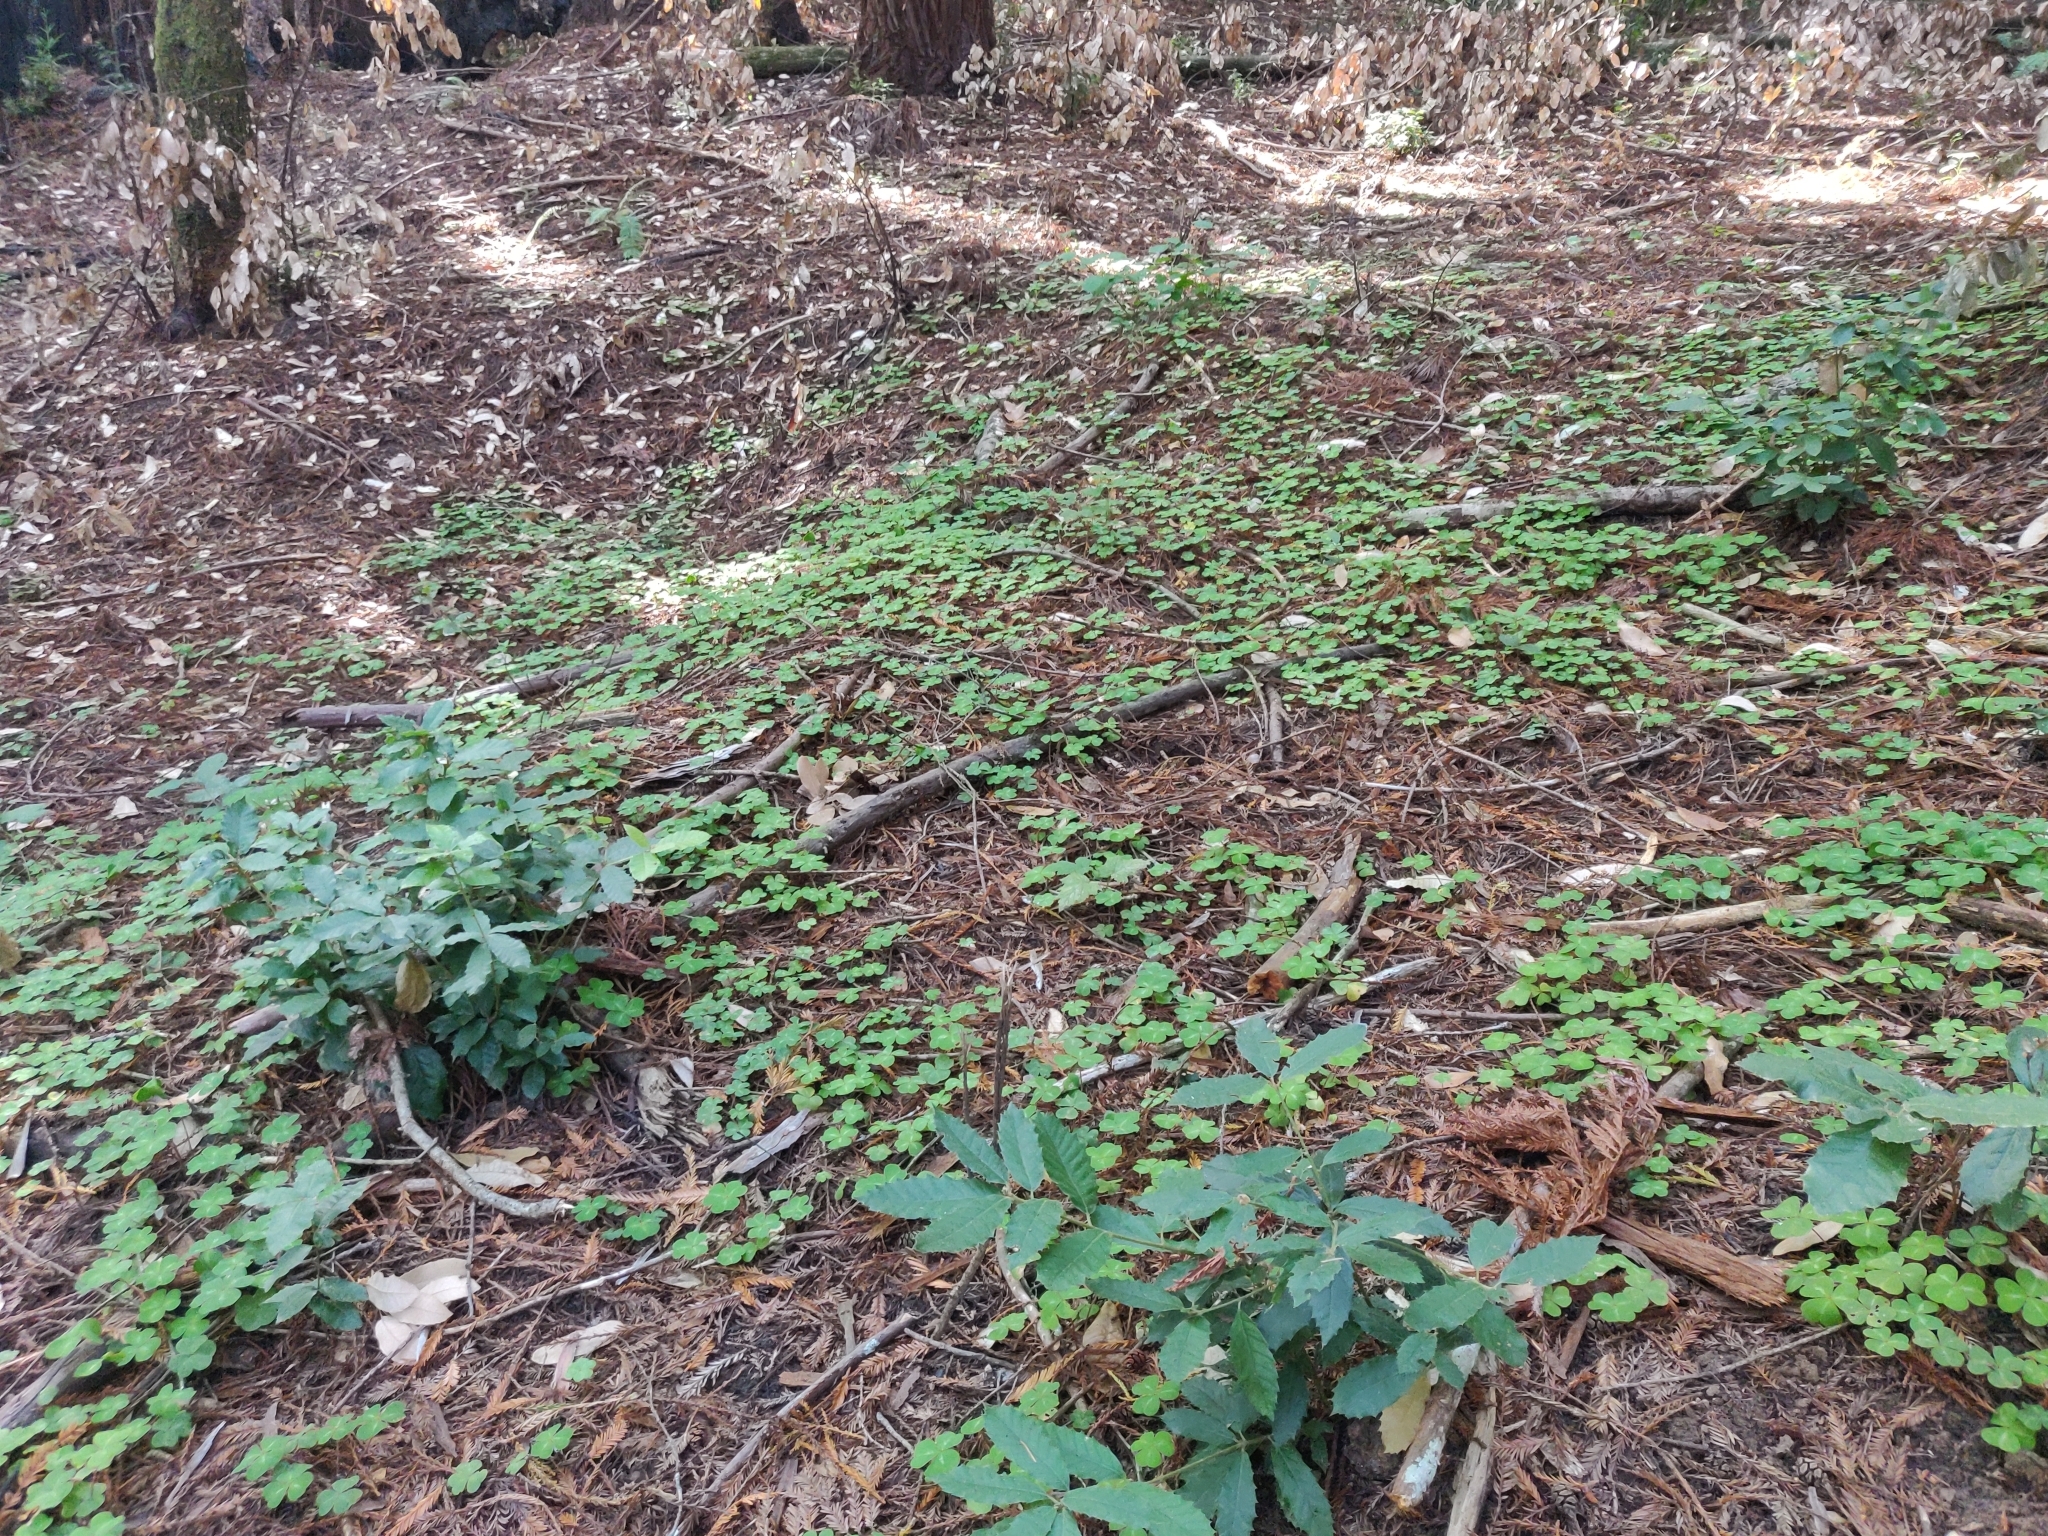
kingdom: Plantae
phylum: Tracheophyta
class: Magnoliopsida
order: Oxalidales
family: Oxalidaceae
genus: Oxalis
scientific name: Oxalis oregana
